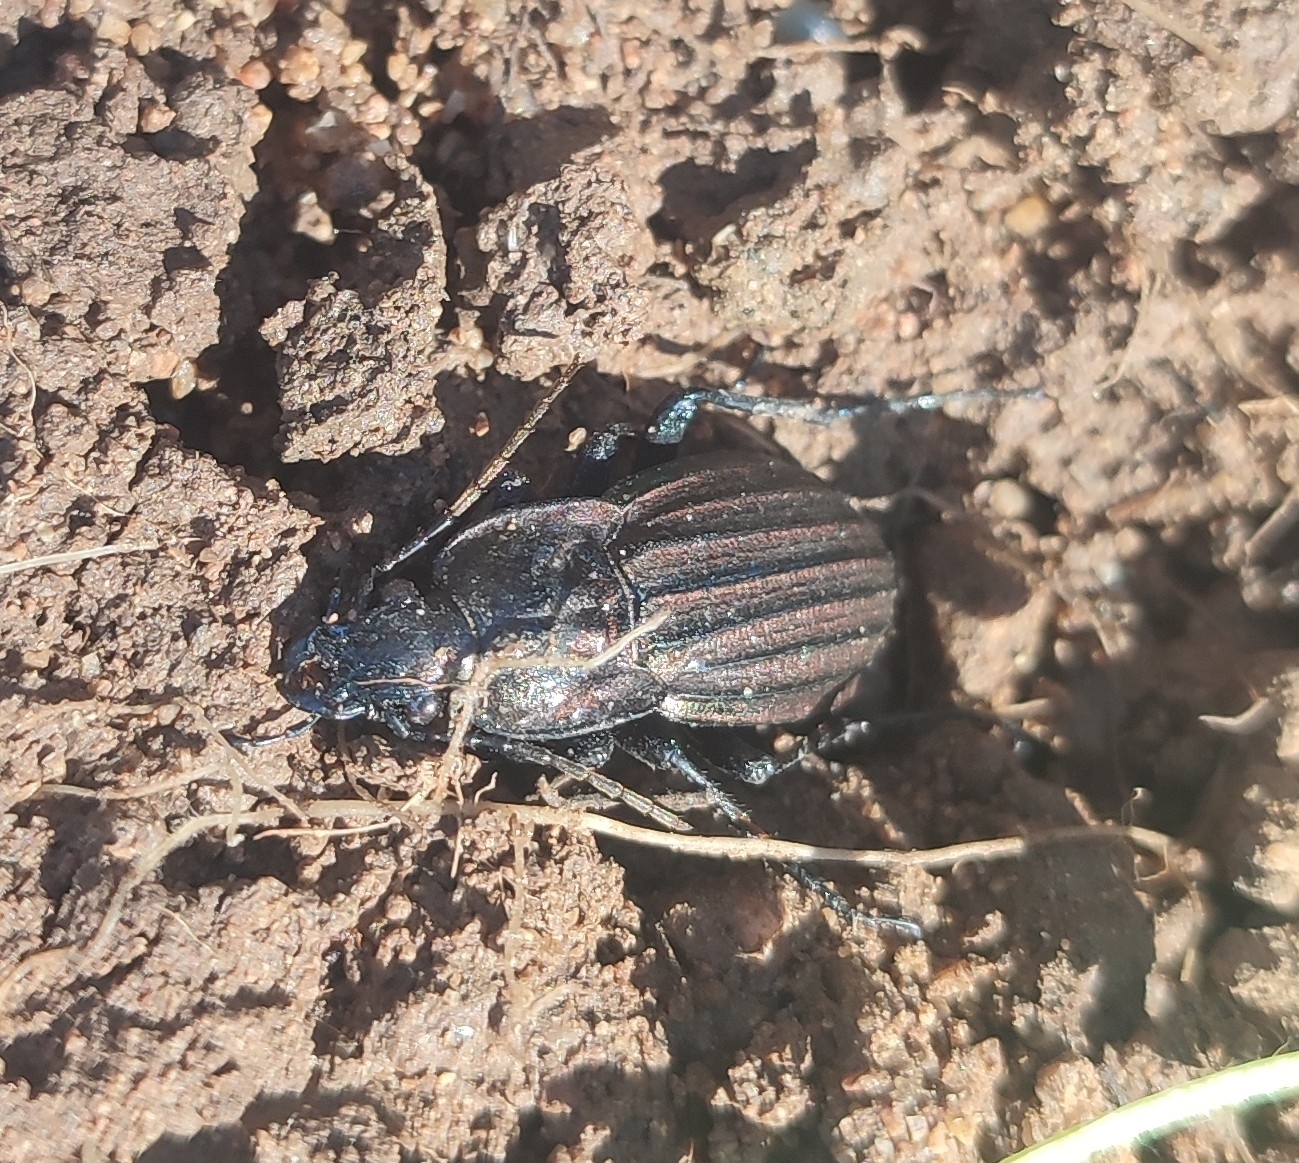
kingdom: Animalia
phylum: Arthropoda
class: Insecta
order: Coleoptera
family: Carabidae
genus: Carabus
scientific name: Carabus melancholicus
